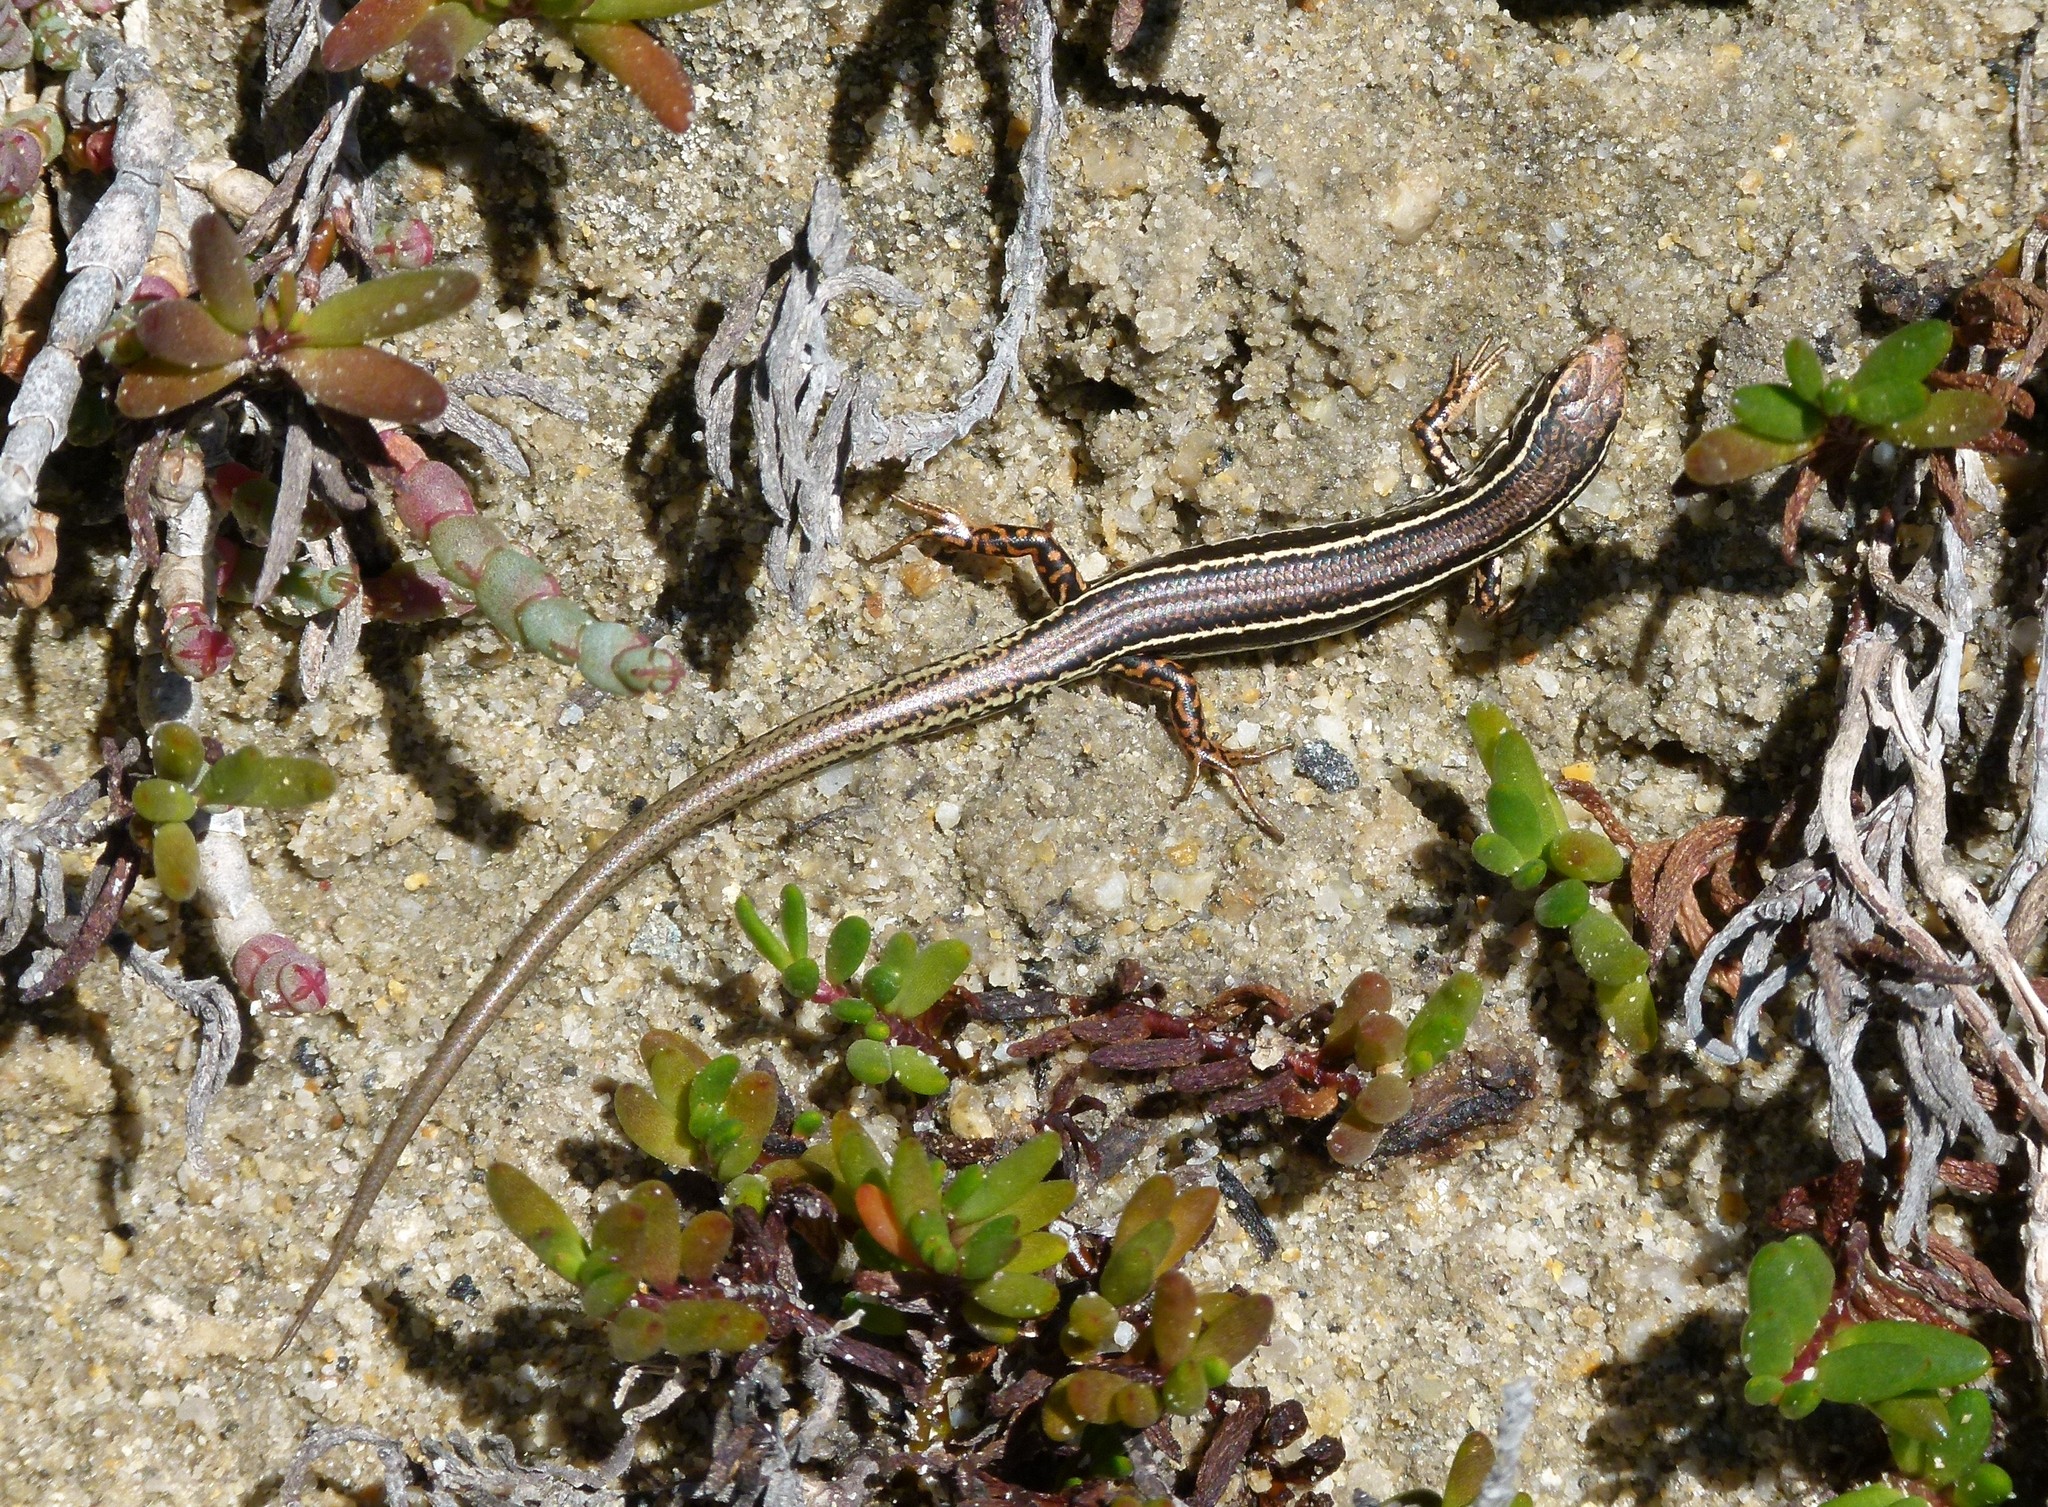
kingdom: Animalia
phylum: Chordata
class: Squamata
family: Scincidae
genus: Ctenotus
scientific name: Ctenotus labillardieri
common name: Common south-west ctenotus
